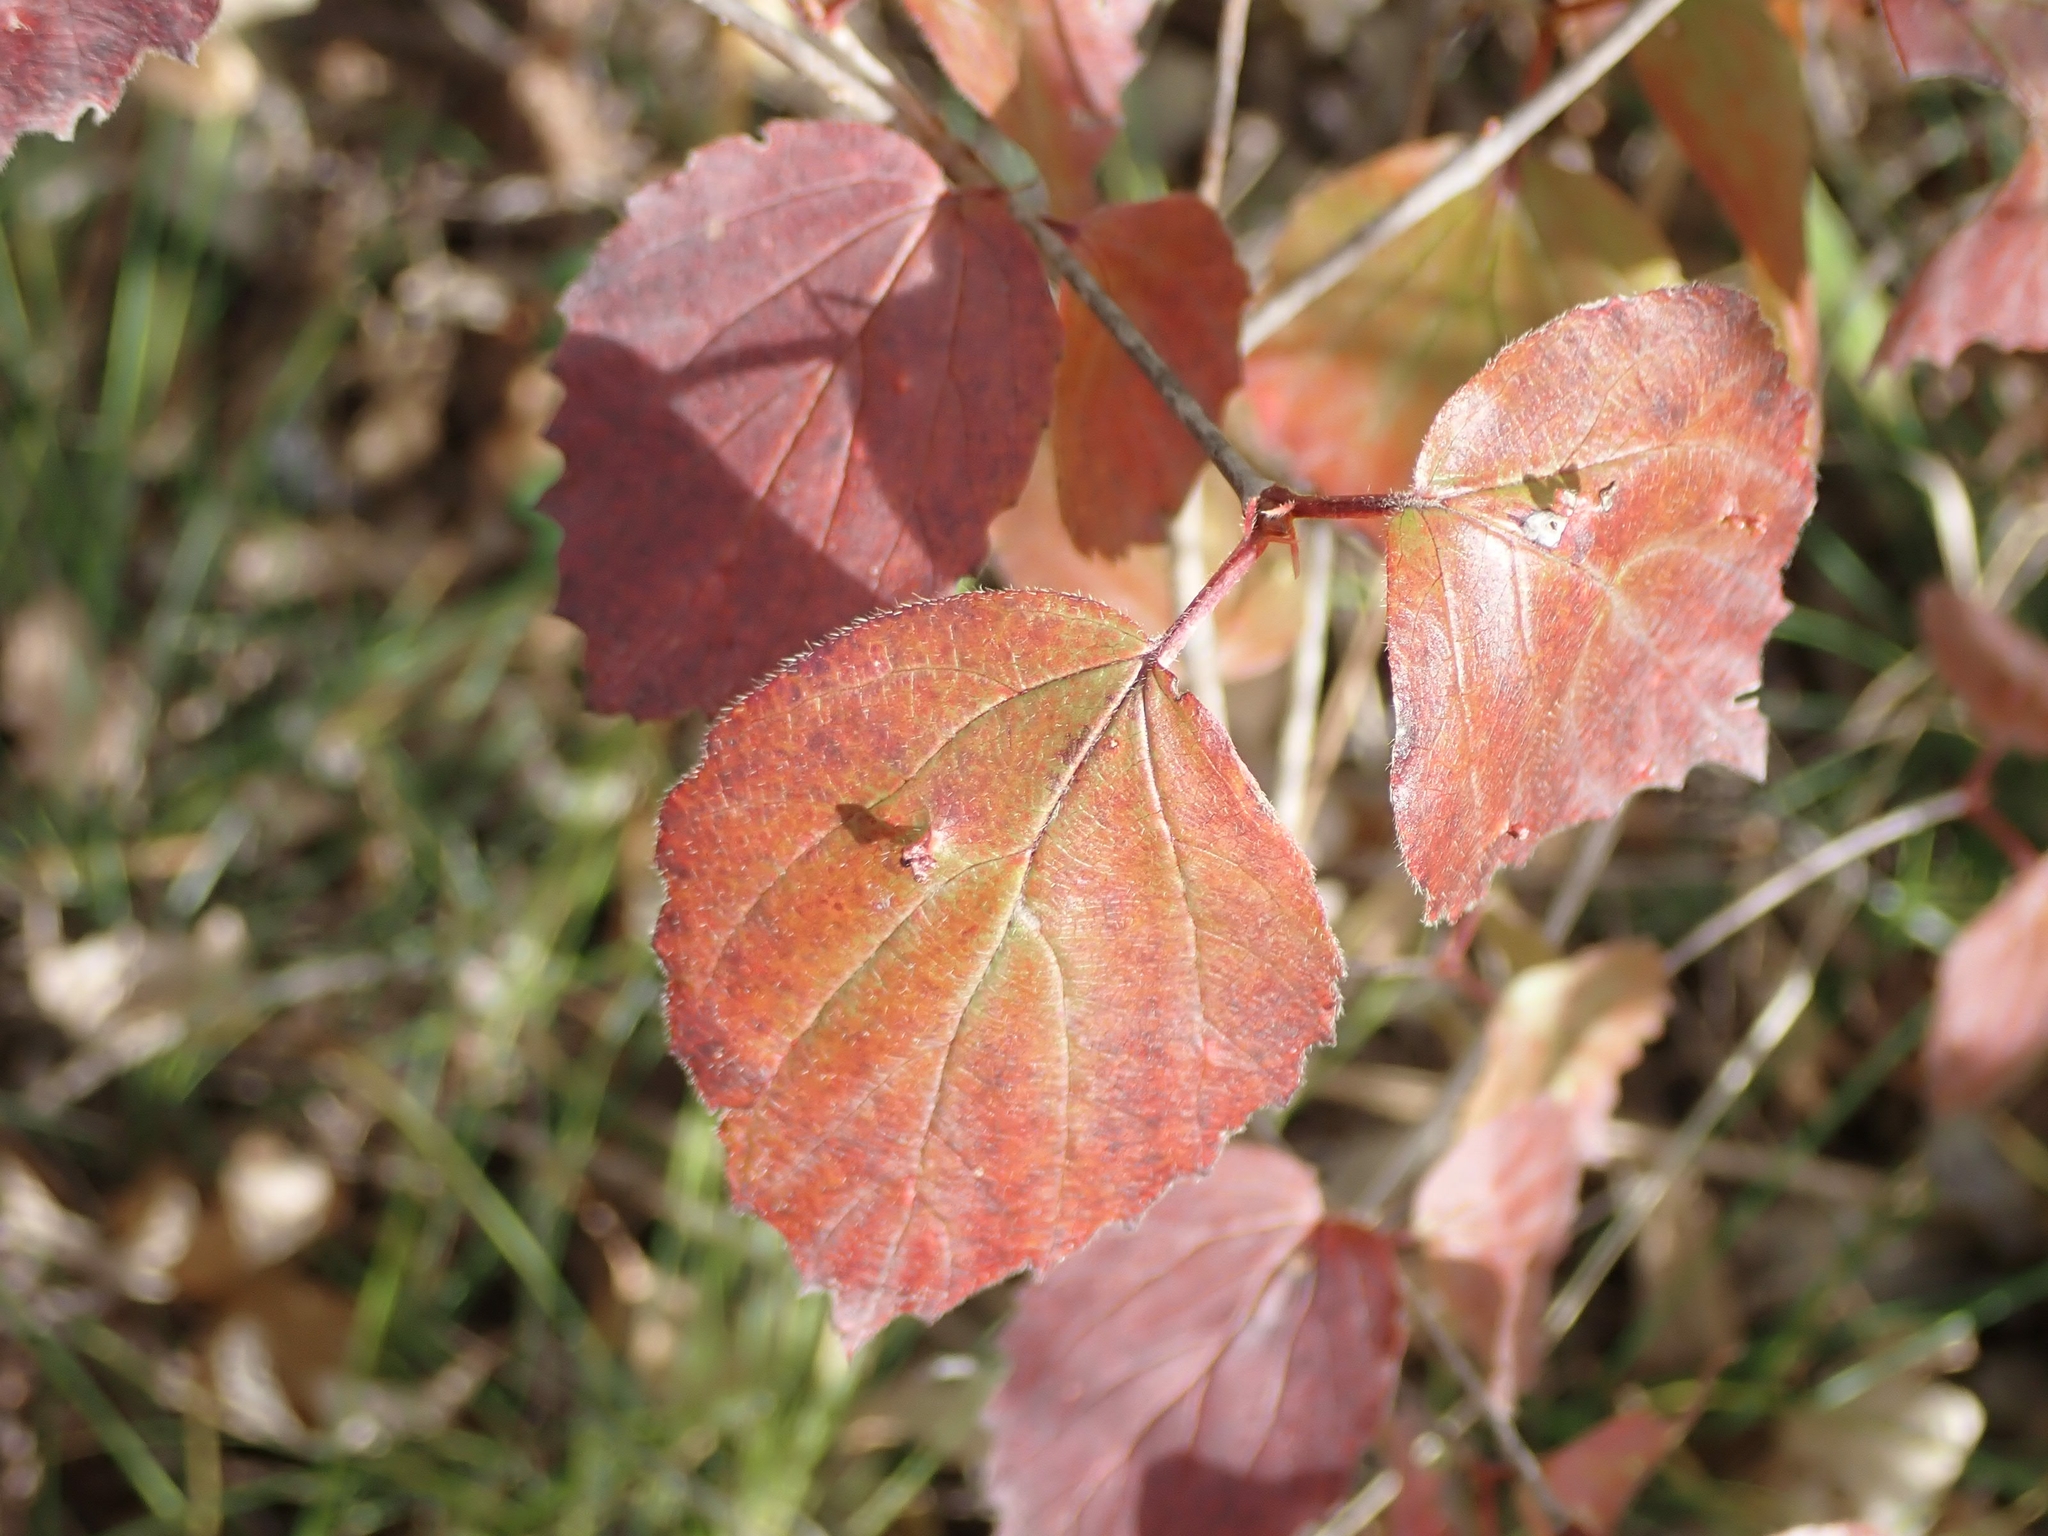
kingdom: Plantae
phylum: Tracheophyta
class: Magnoliopsida
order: Dipsacales
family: Viburnaceae
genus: Viburnum
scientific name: Viburnum rafinesqueanum
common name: Downy arrow-wood
